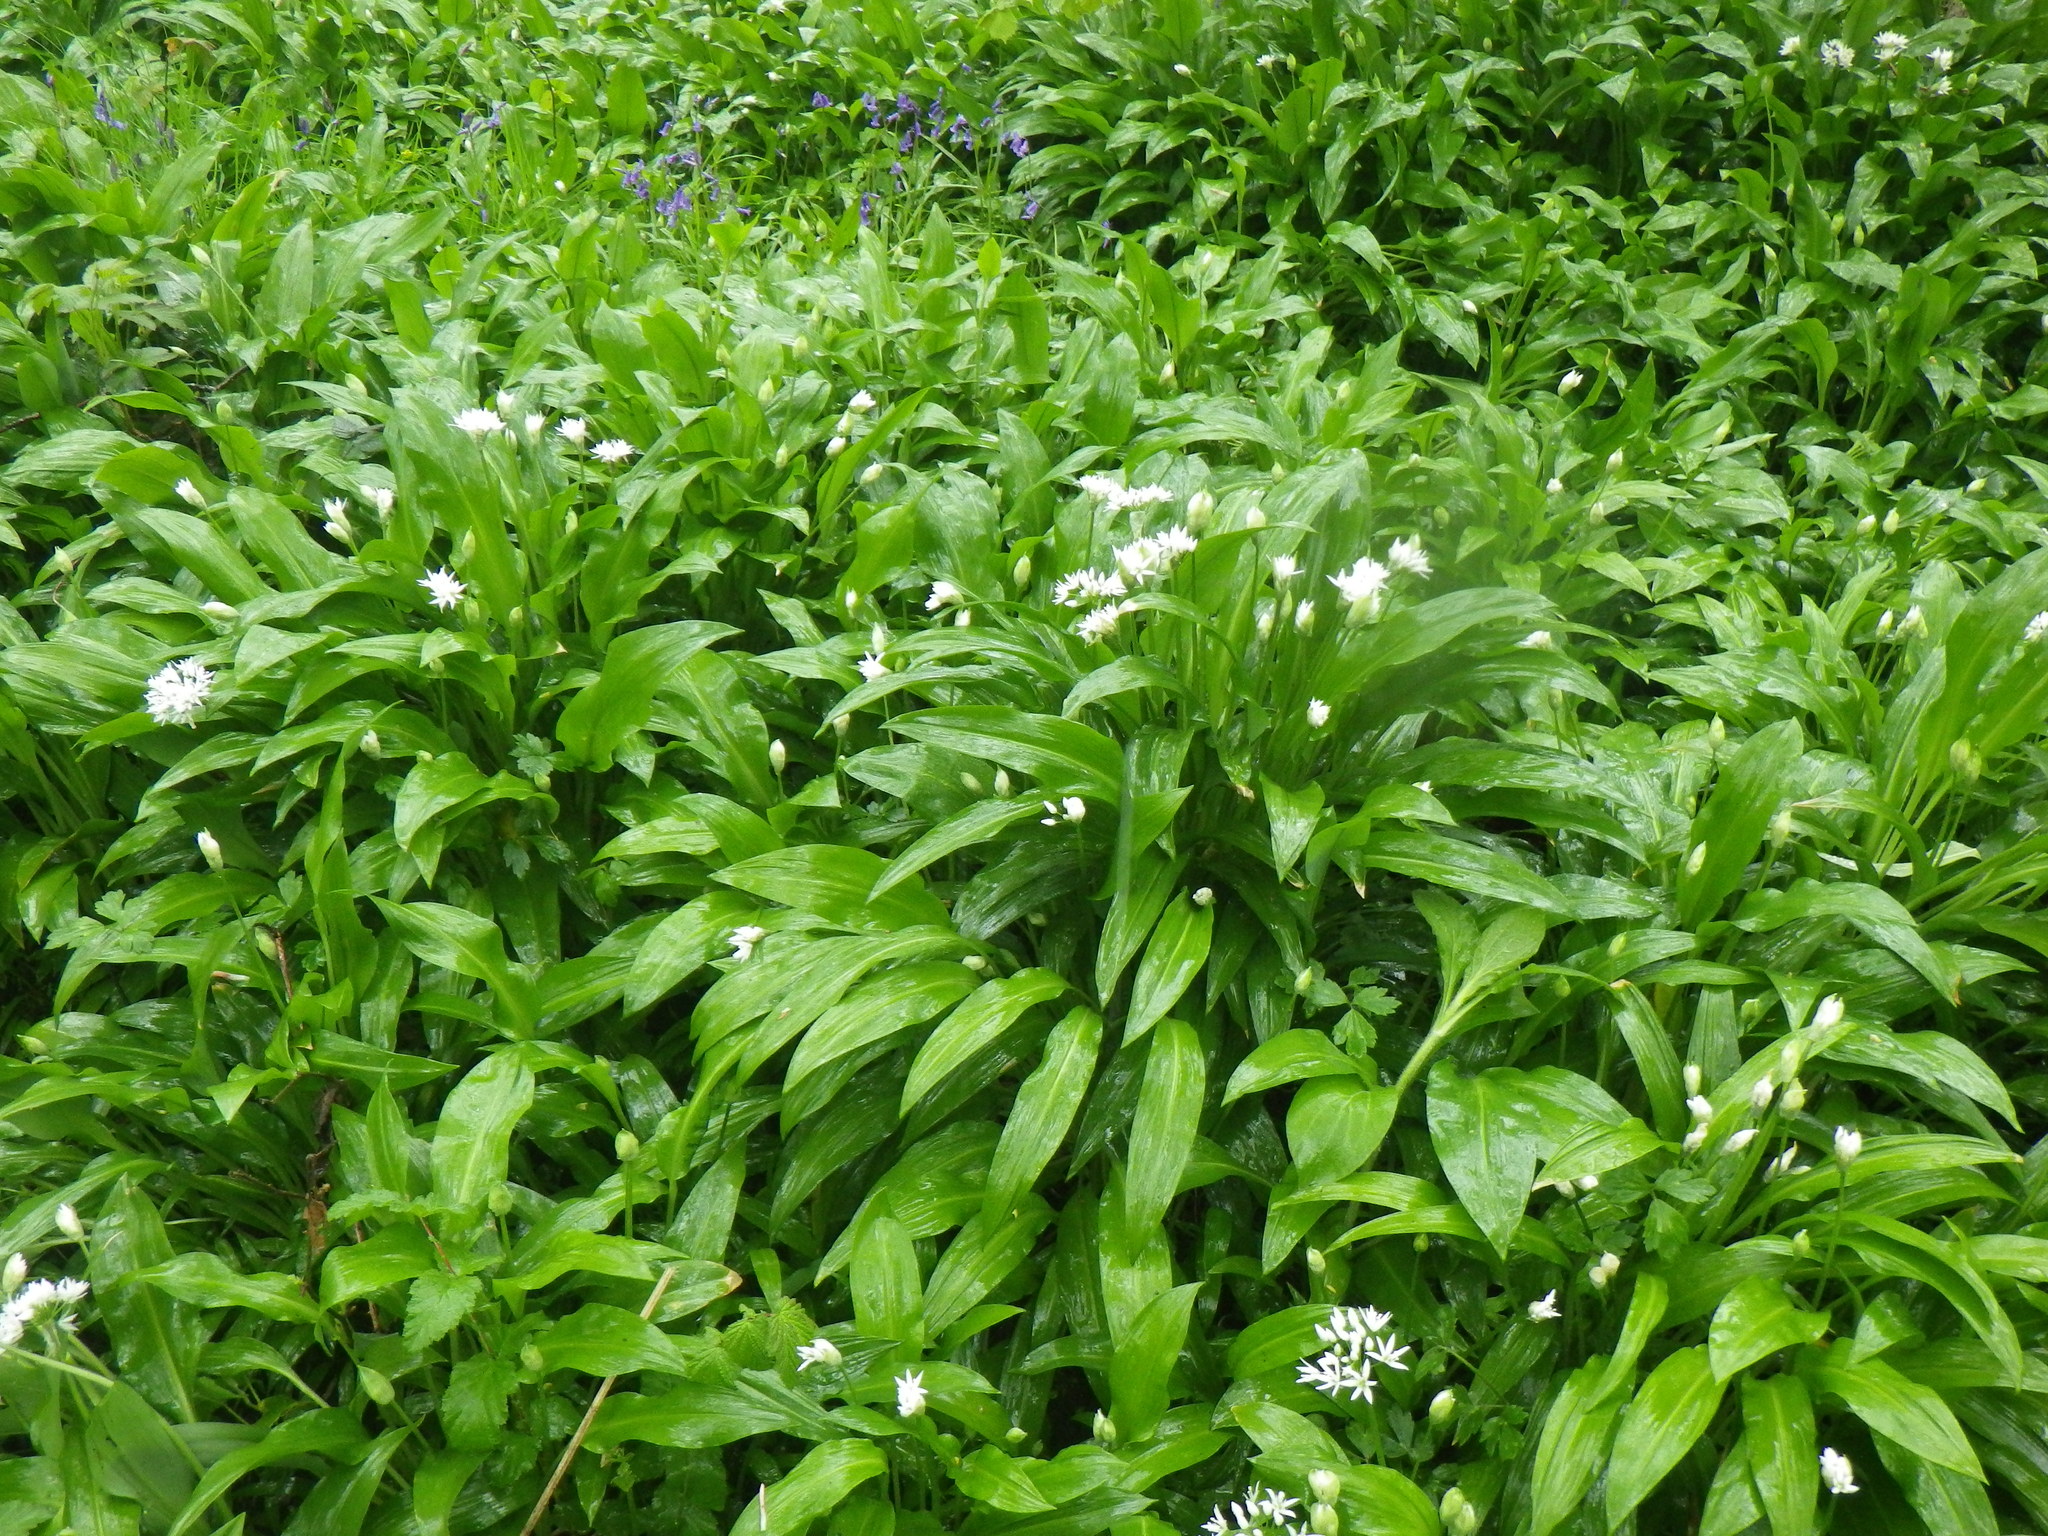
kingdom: Plantae
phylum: Tracheophyta
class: Liliopsida
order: Asparagales
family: Amaryllidaceae
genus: Allium
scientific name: Allium ursinum
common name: Ramsons
